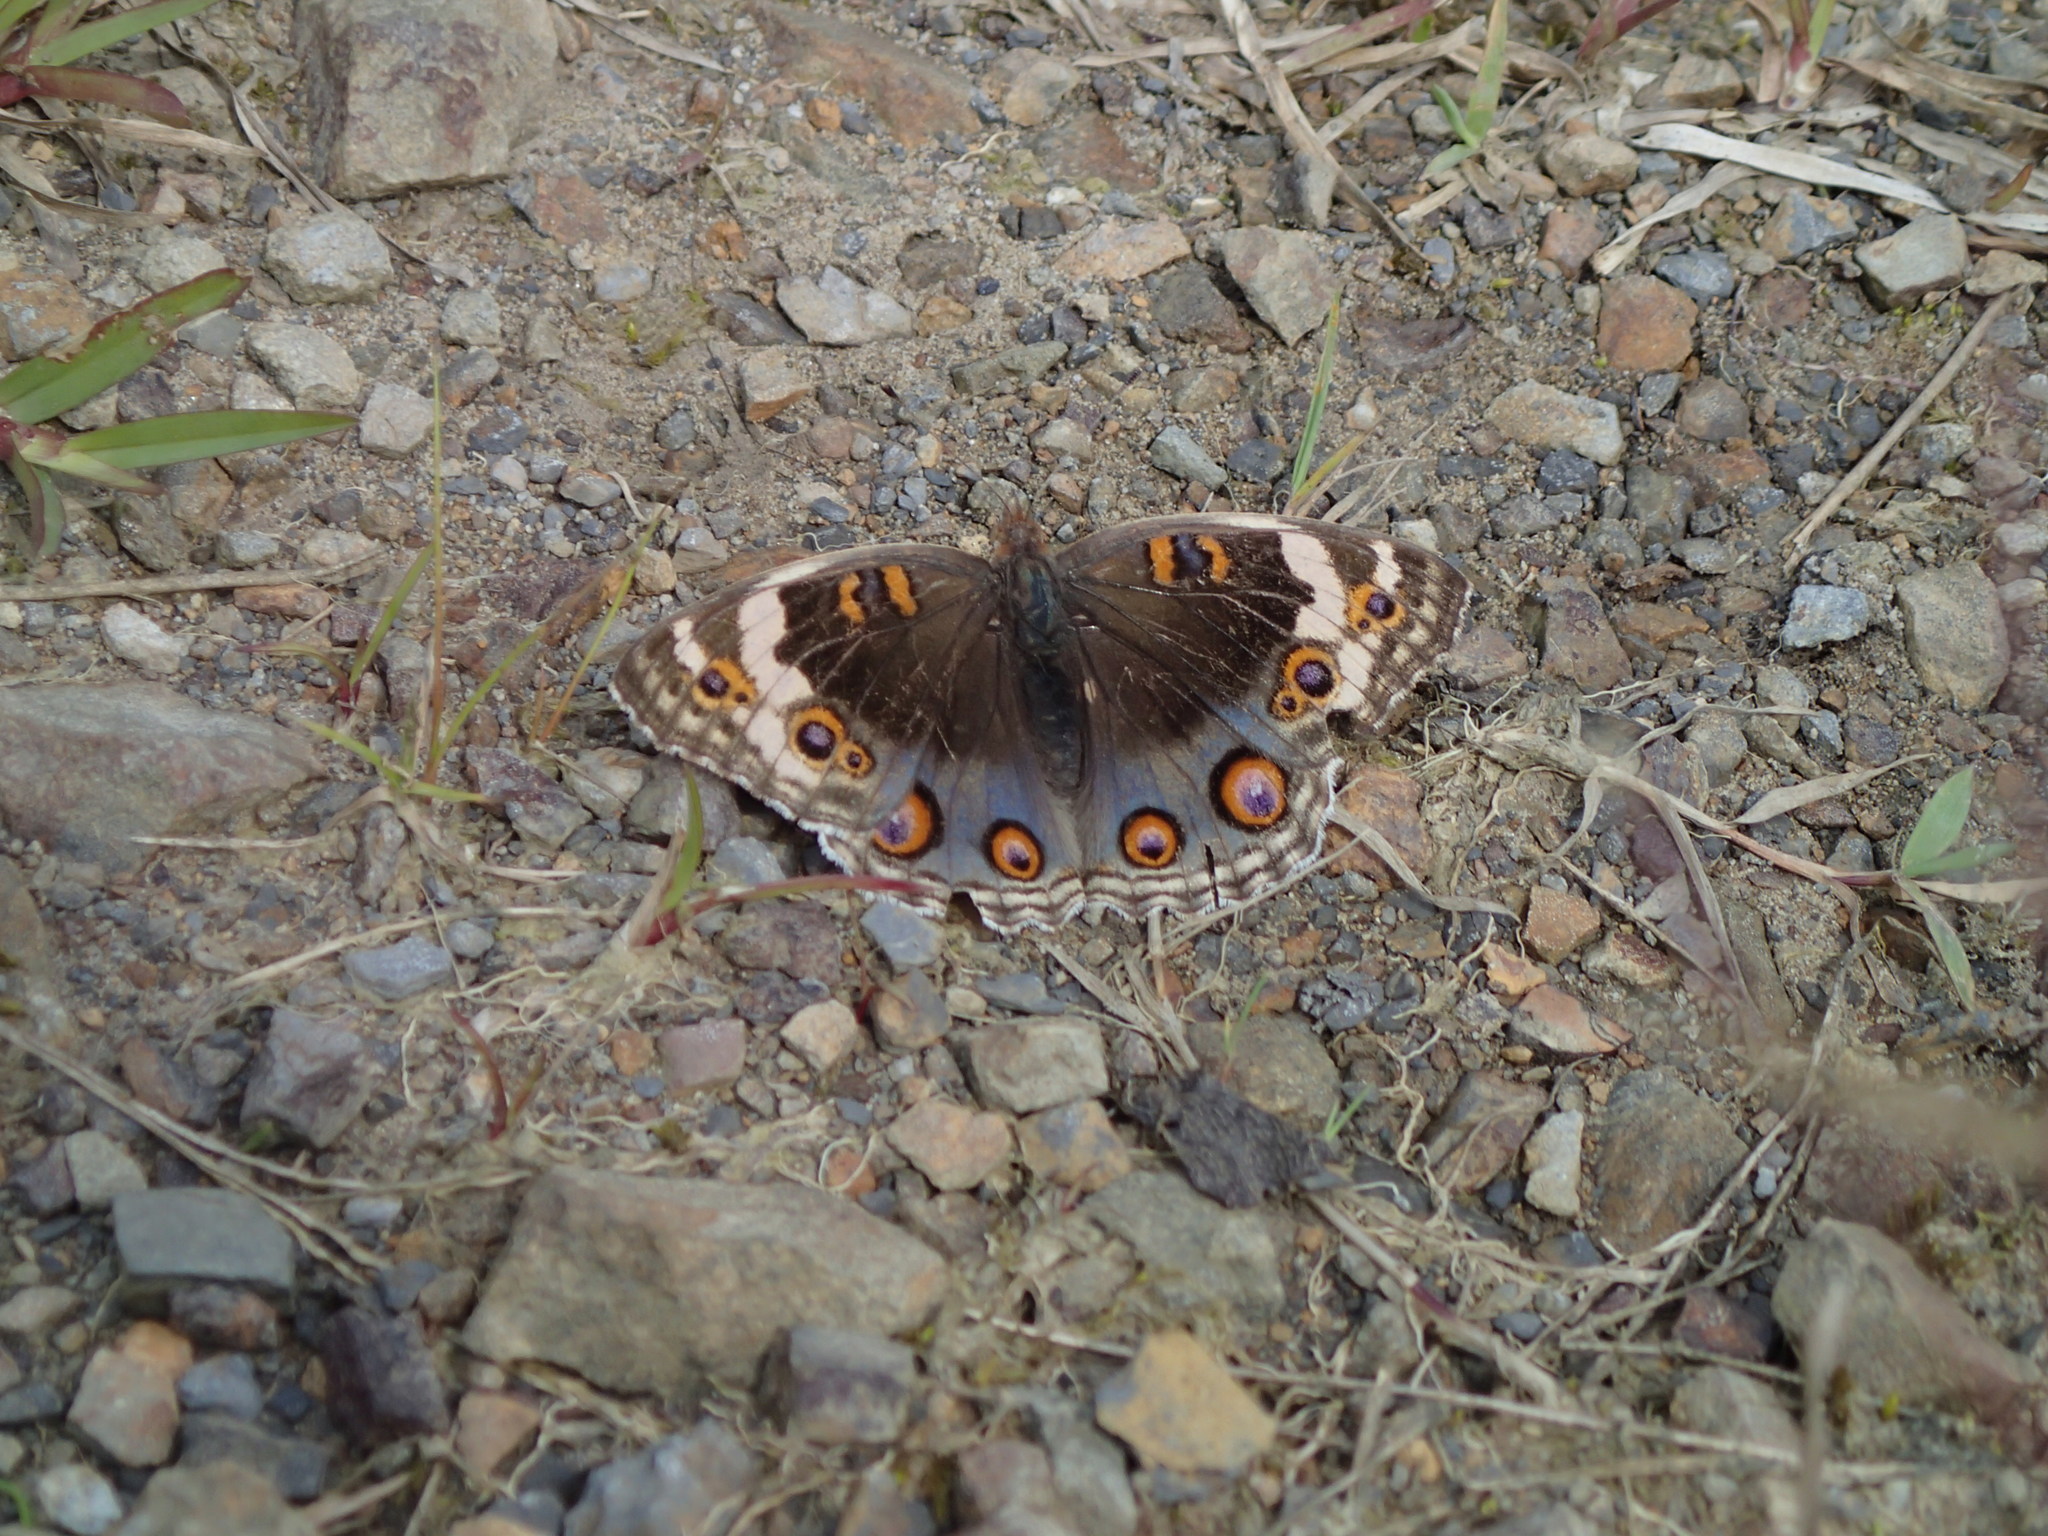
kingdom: Animalia
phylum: Arthropoda
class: Insecta
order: Lepidoptera
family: Nymphalidae
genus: Junonia
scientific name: Junonia orithya
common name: Blue pansy
